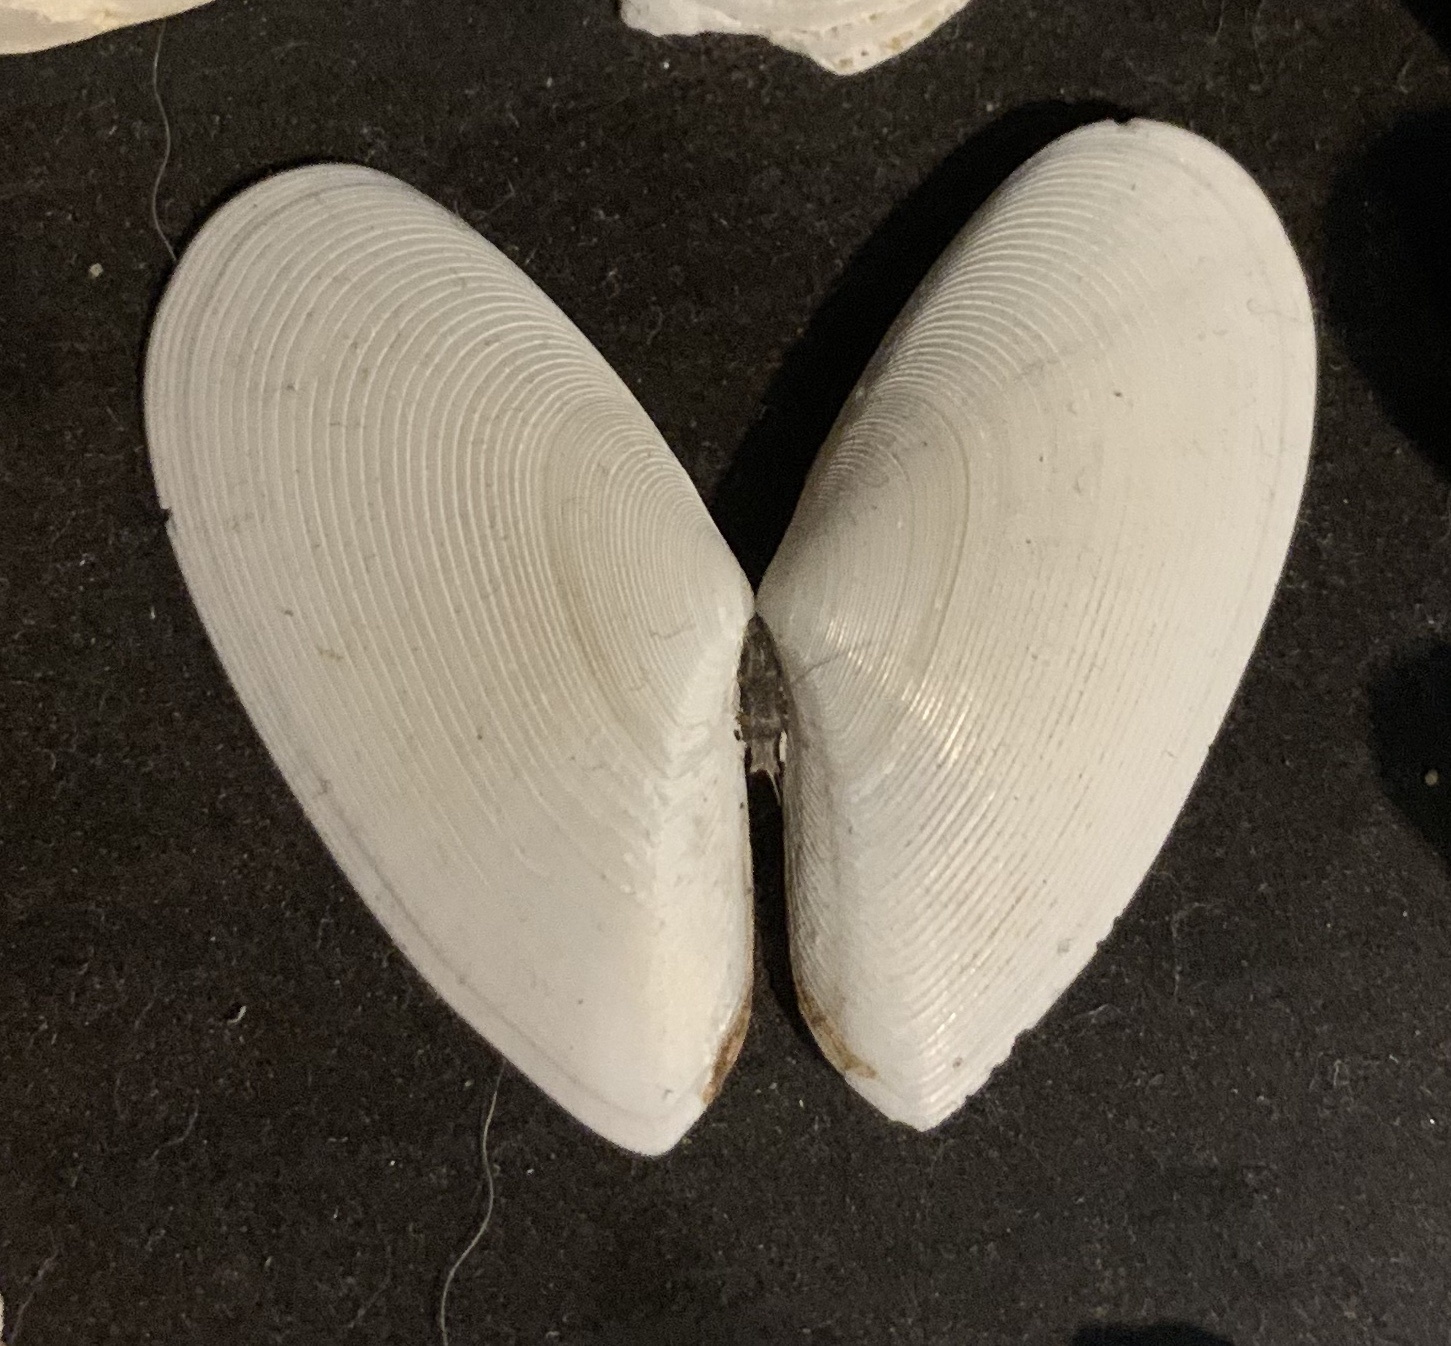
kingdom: Animalia
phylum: Mollusca
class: Bivalvia
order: Cardiida
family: Tellinidae
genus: Megangulus
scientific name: Megangulus bodegensis
